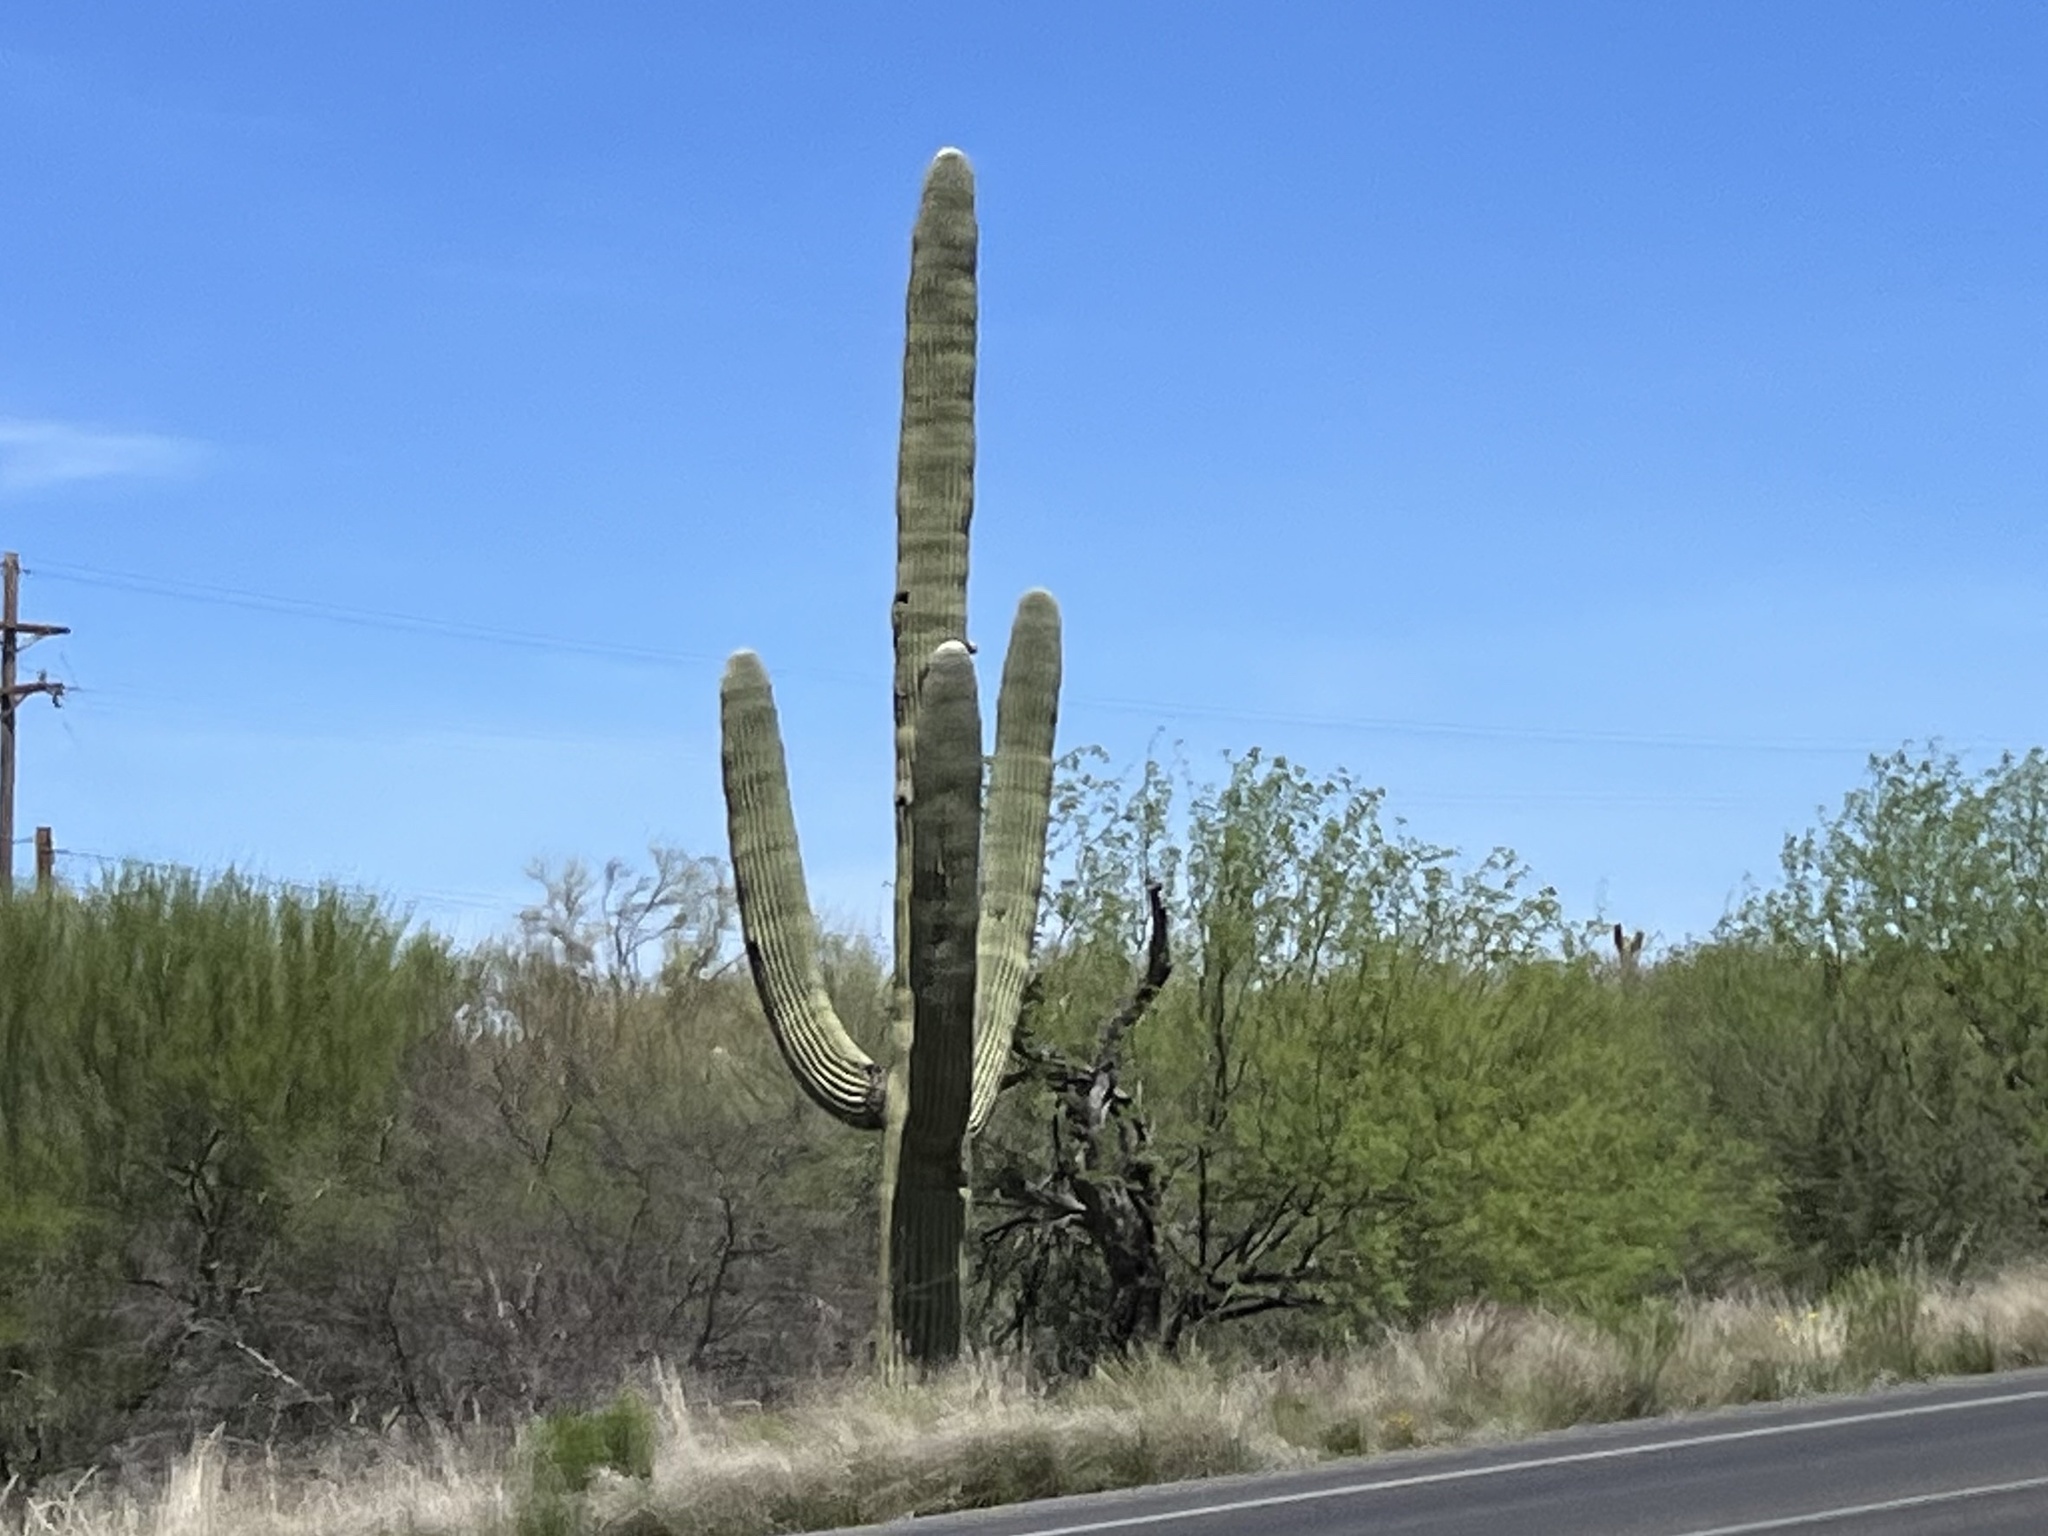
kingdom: Plantae
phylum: Tracheophyta
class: Magnoliopsida
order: Caryophyllales
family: Cactaceae
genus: Carnegiea
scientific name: Carnegiea gigantea
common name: Saguaro
